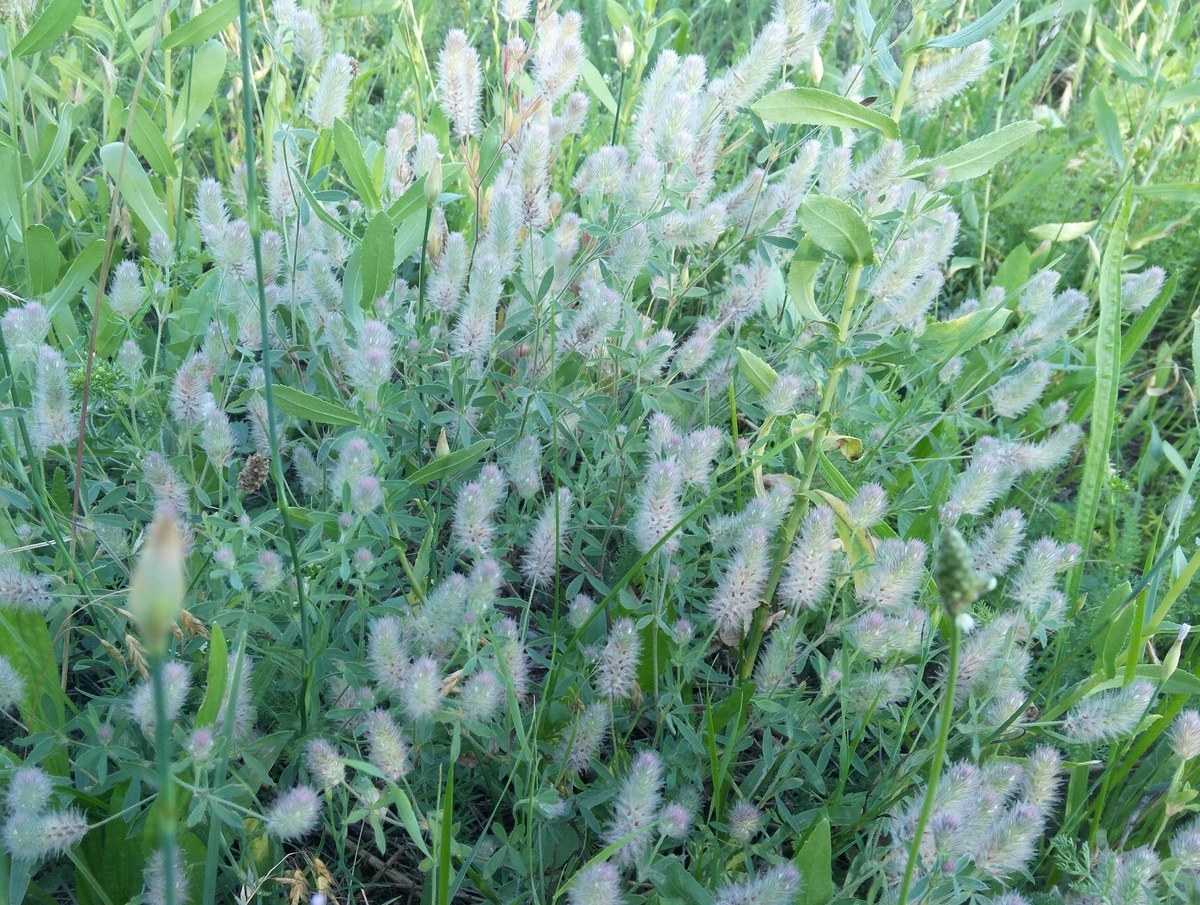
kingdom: Plantae
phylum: Tracheophyta
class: Magnoliopsida
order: Fabales
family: Fabaceae
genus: Trifolium
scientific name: Trifolium arvense
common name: Hare's-foot clover
